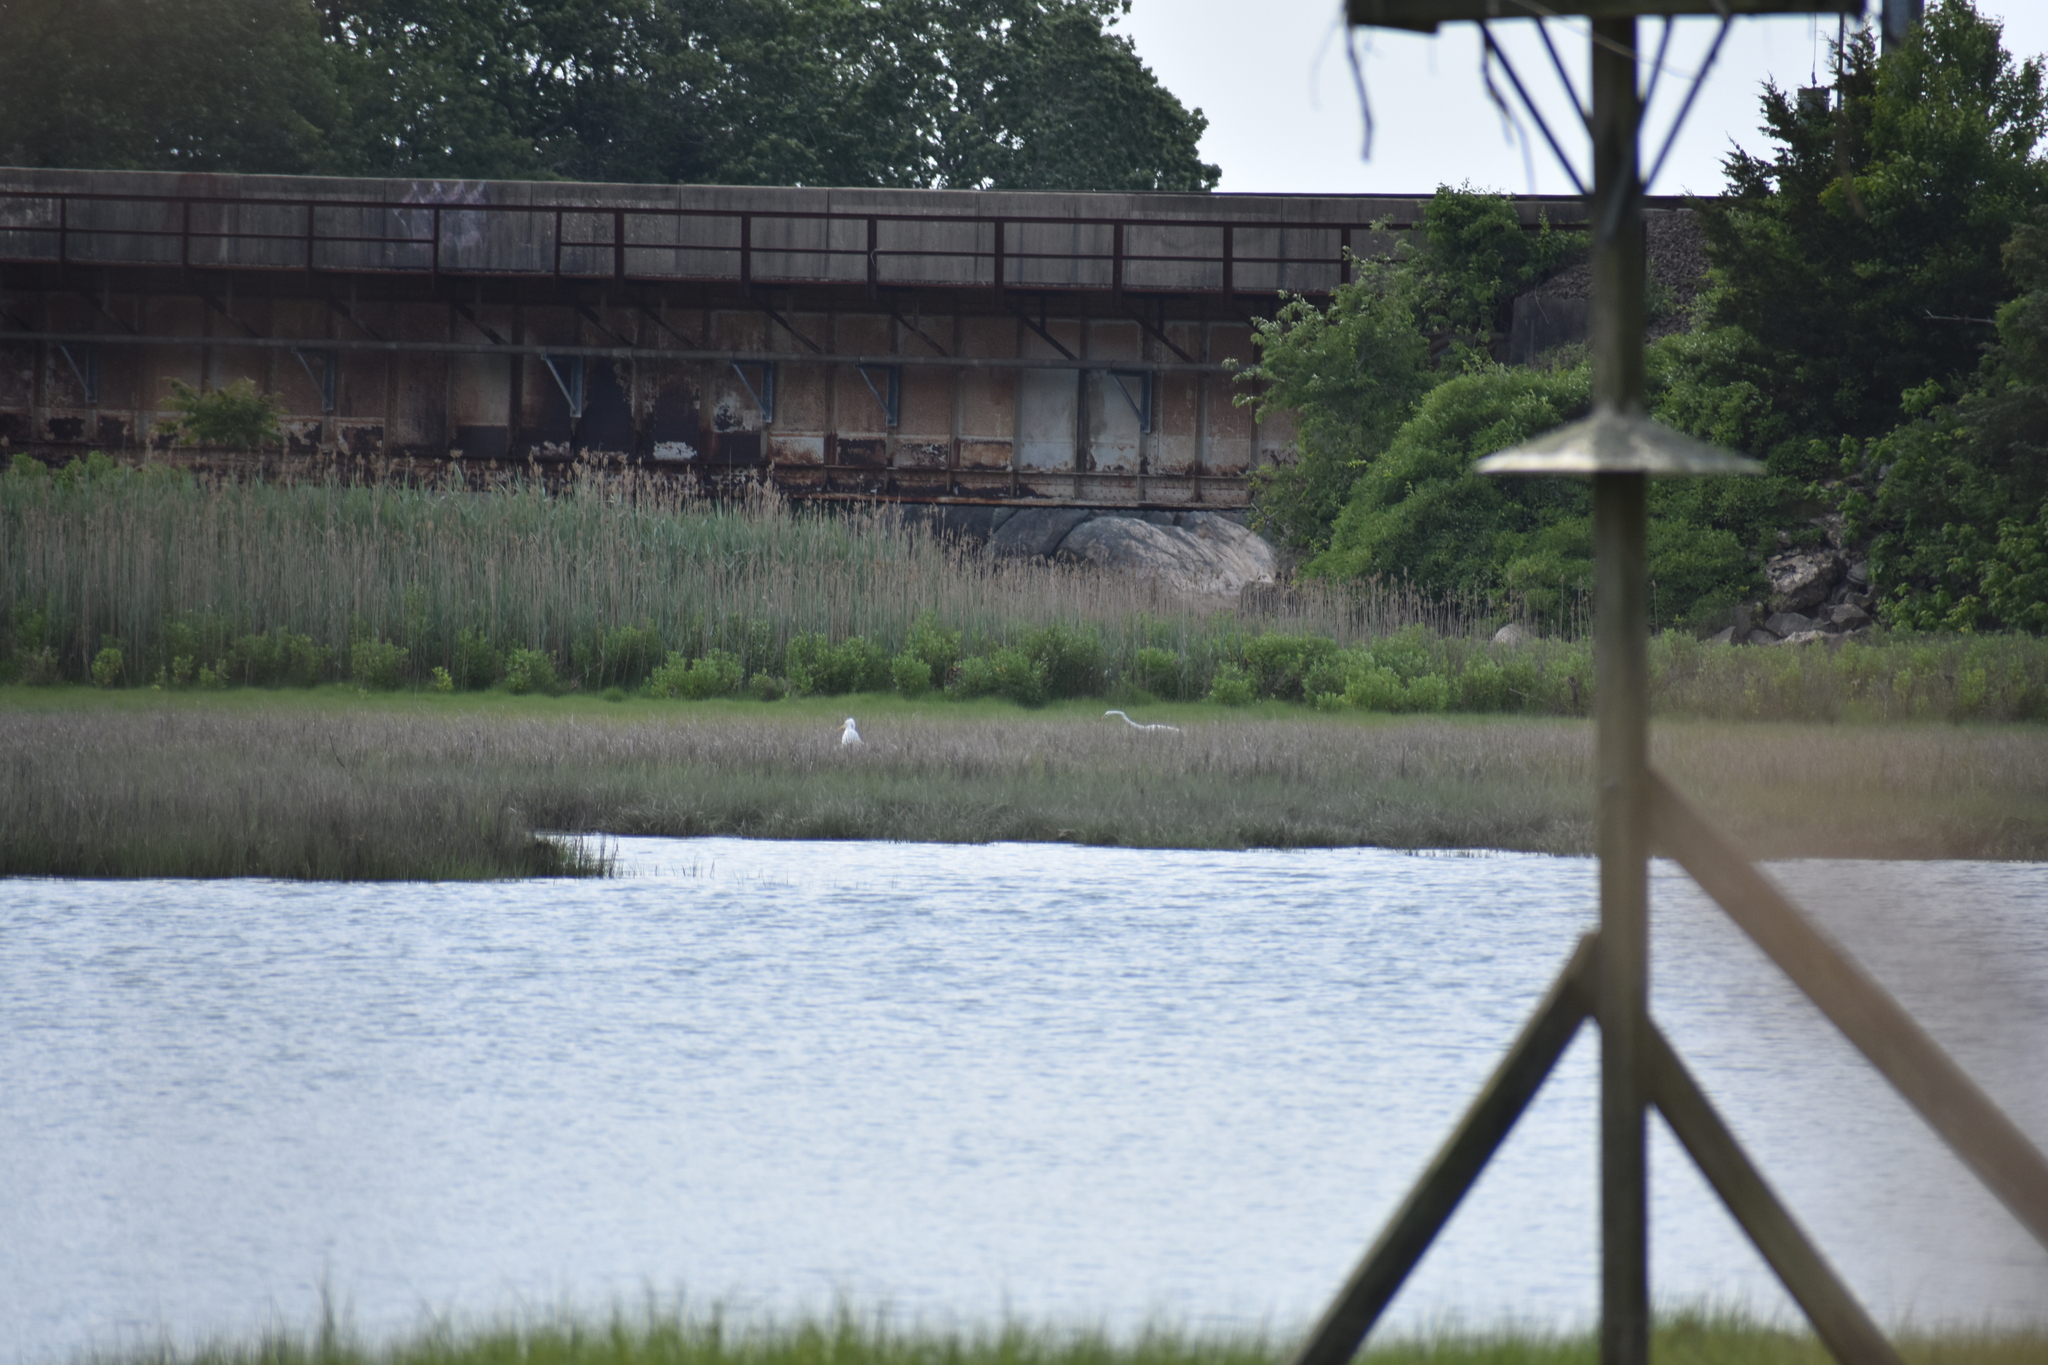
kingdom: Animalia
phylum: Chordata
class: Aves
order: Pelecaniformes
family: Ardeidae
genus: Ardea
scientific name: Ardea alba
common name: Great egret
